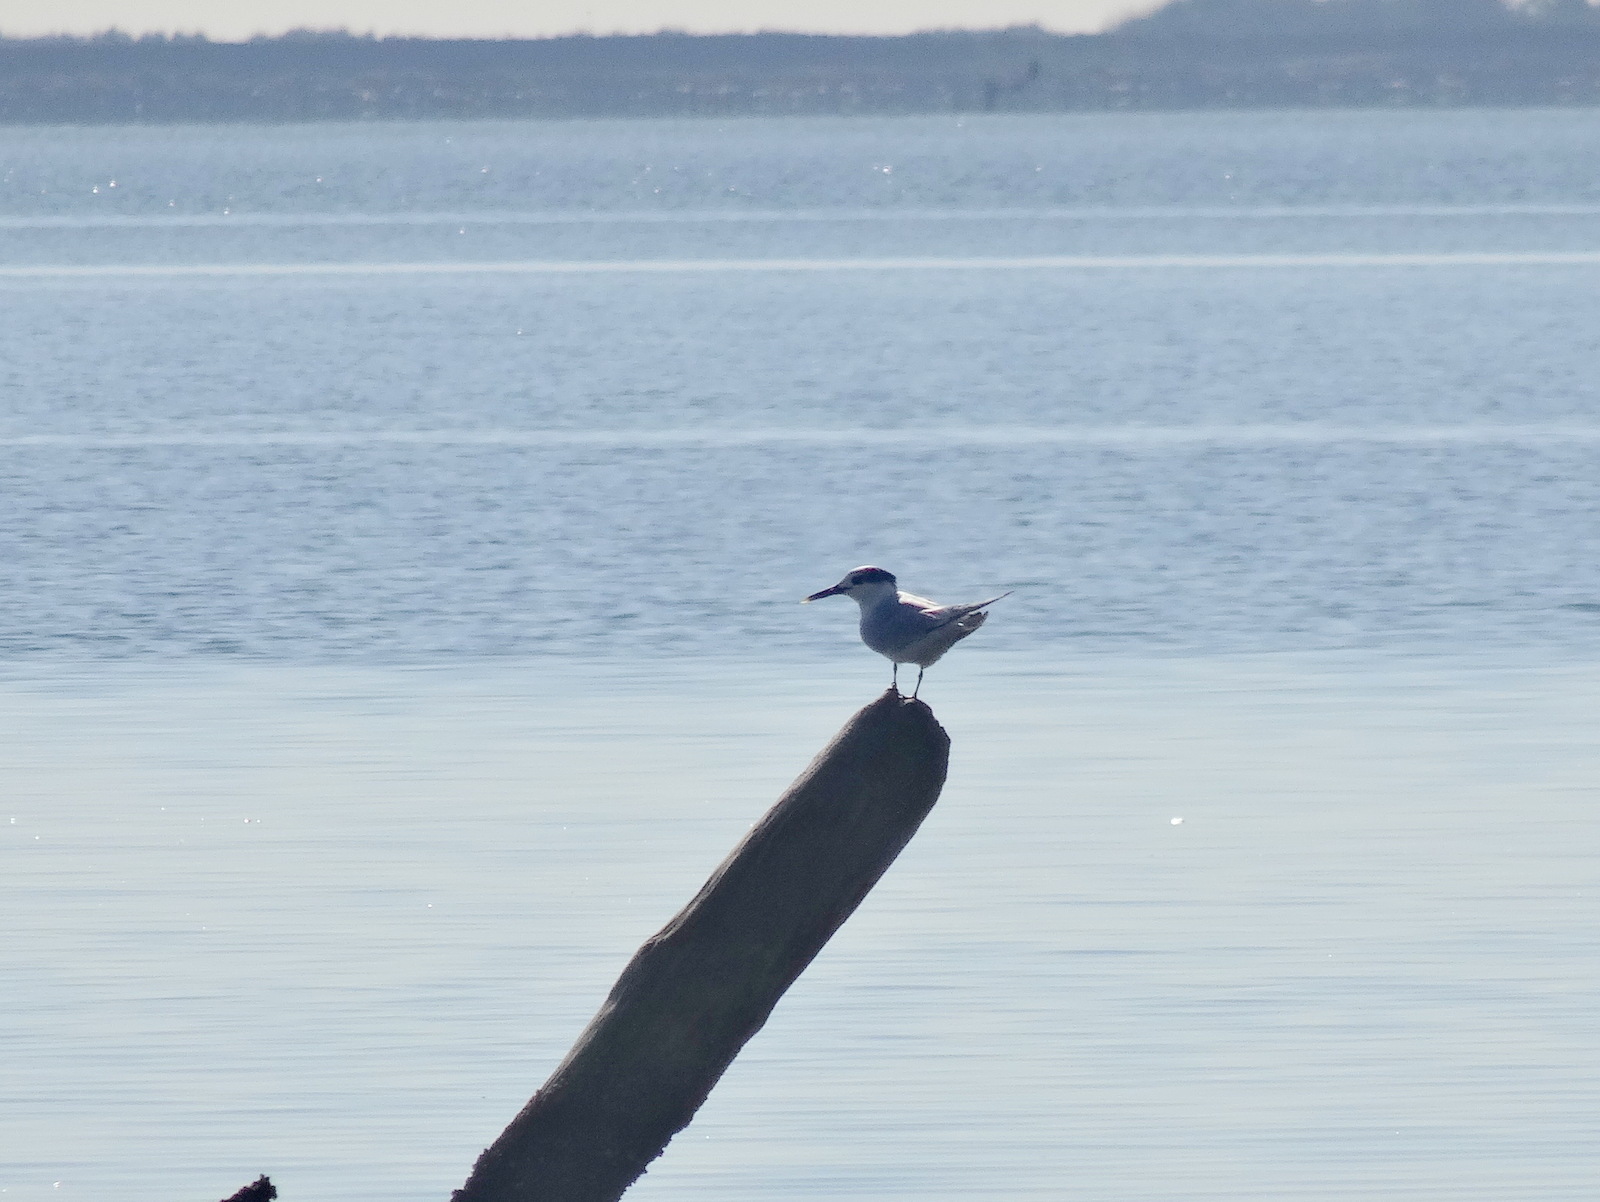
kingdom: Animalia
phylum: Chordata
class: Aves
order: Charadriiformes
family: Laridae
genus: Thalasseus
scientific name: Thalasseus sandvicensis
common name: Sandwich tern
